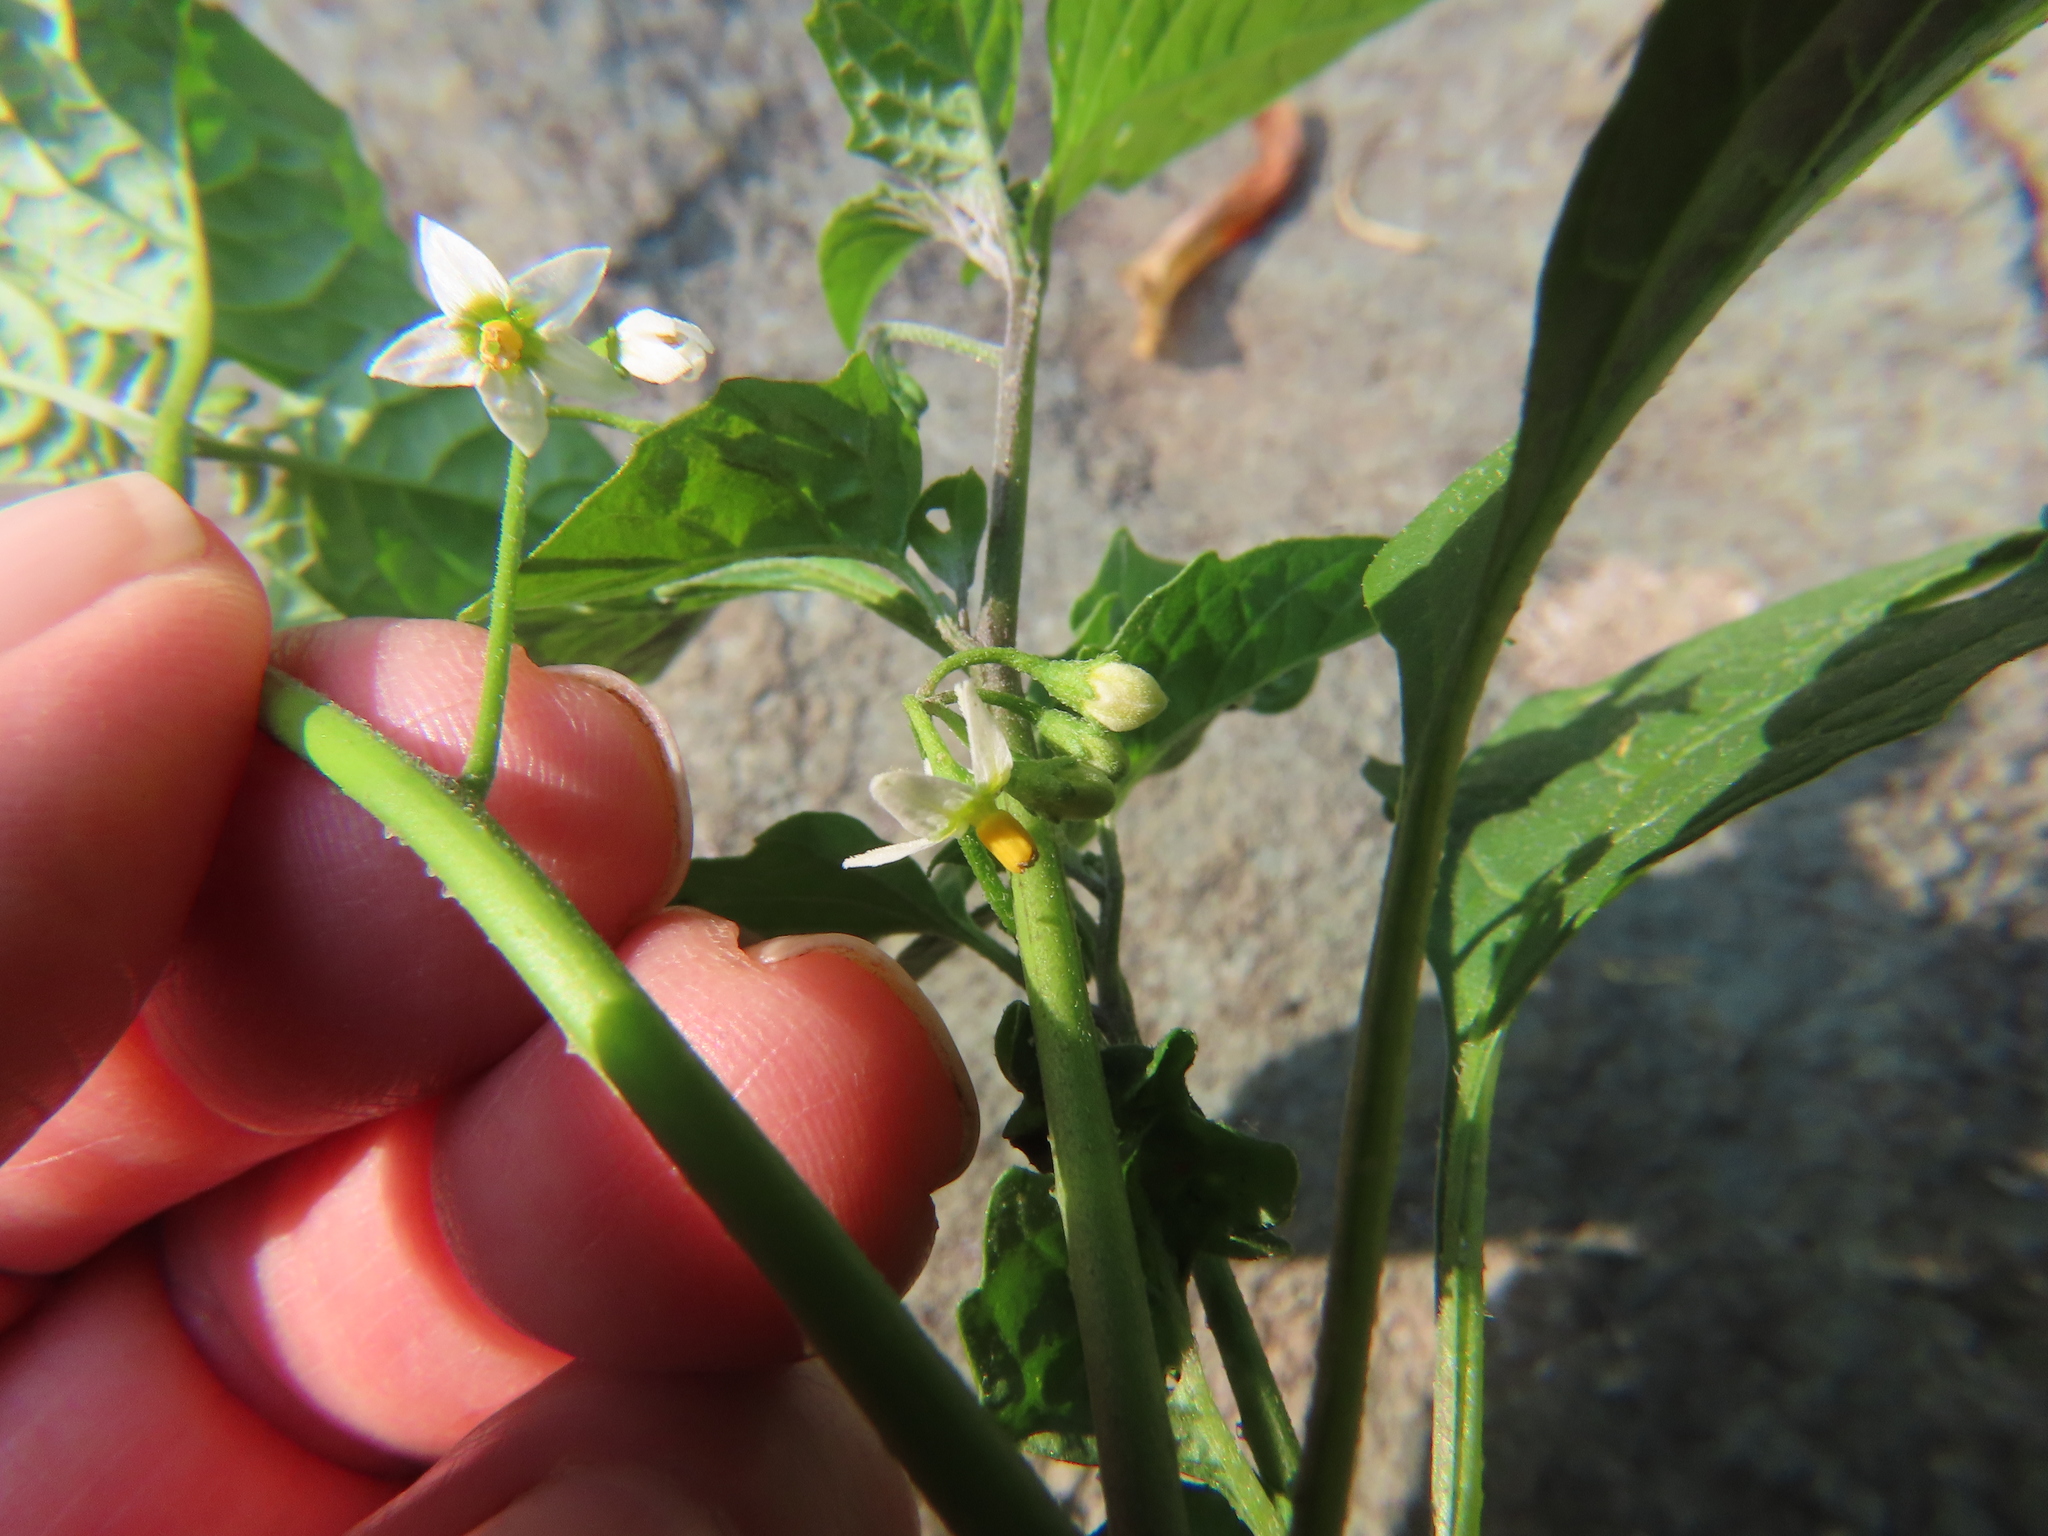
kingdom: Plantae
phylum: Tracheophyta
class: Magnoliopsida
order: Solanales
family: Solanaceae
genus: Solanum
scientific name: Solanum emulans
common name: Eastern black nightshade
